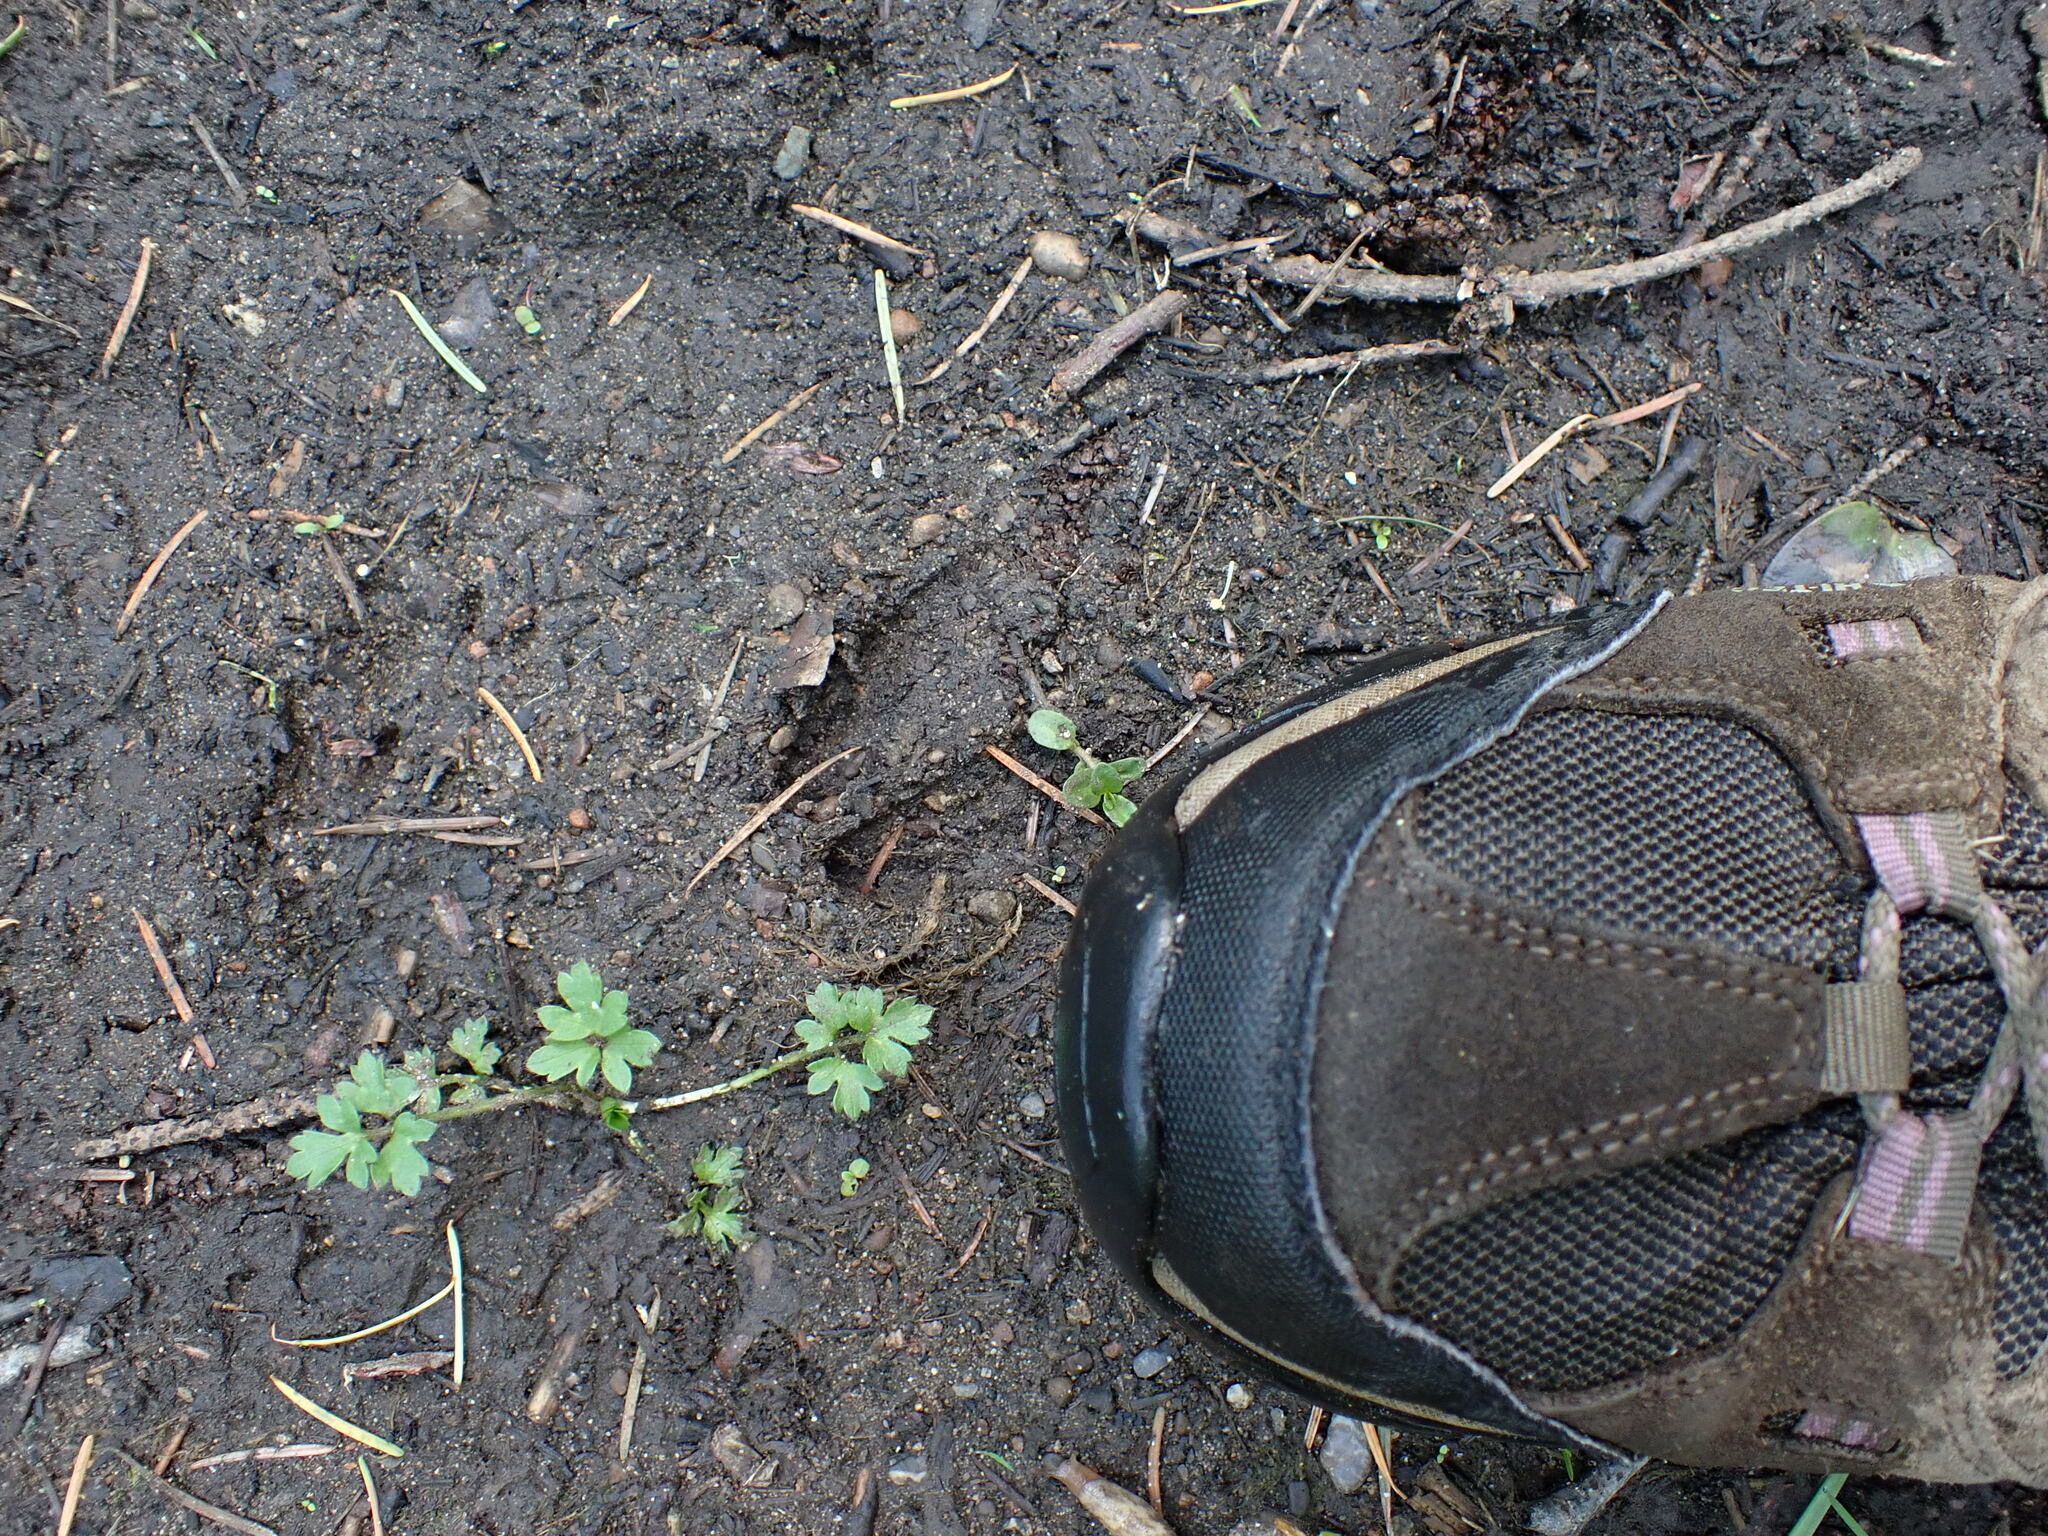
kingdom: Animalia
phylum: Chordata
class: Mammalia
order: Artiodactyla
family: Cervidae
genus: Odocoileus
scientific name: Odocoileus hemionus
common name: Mule deer
